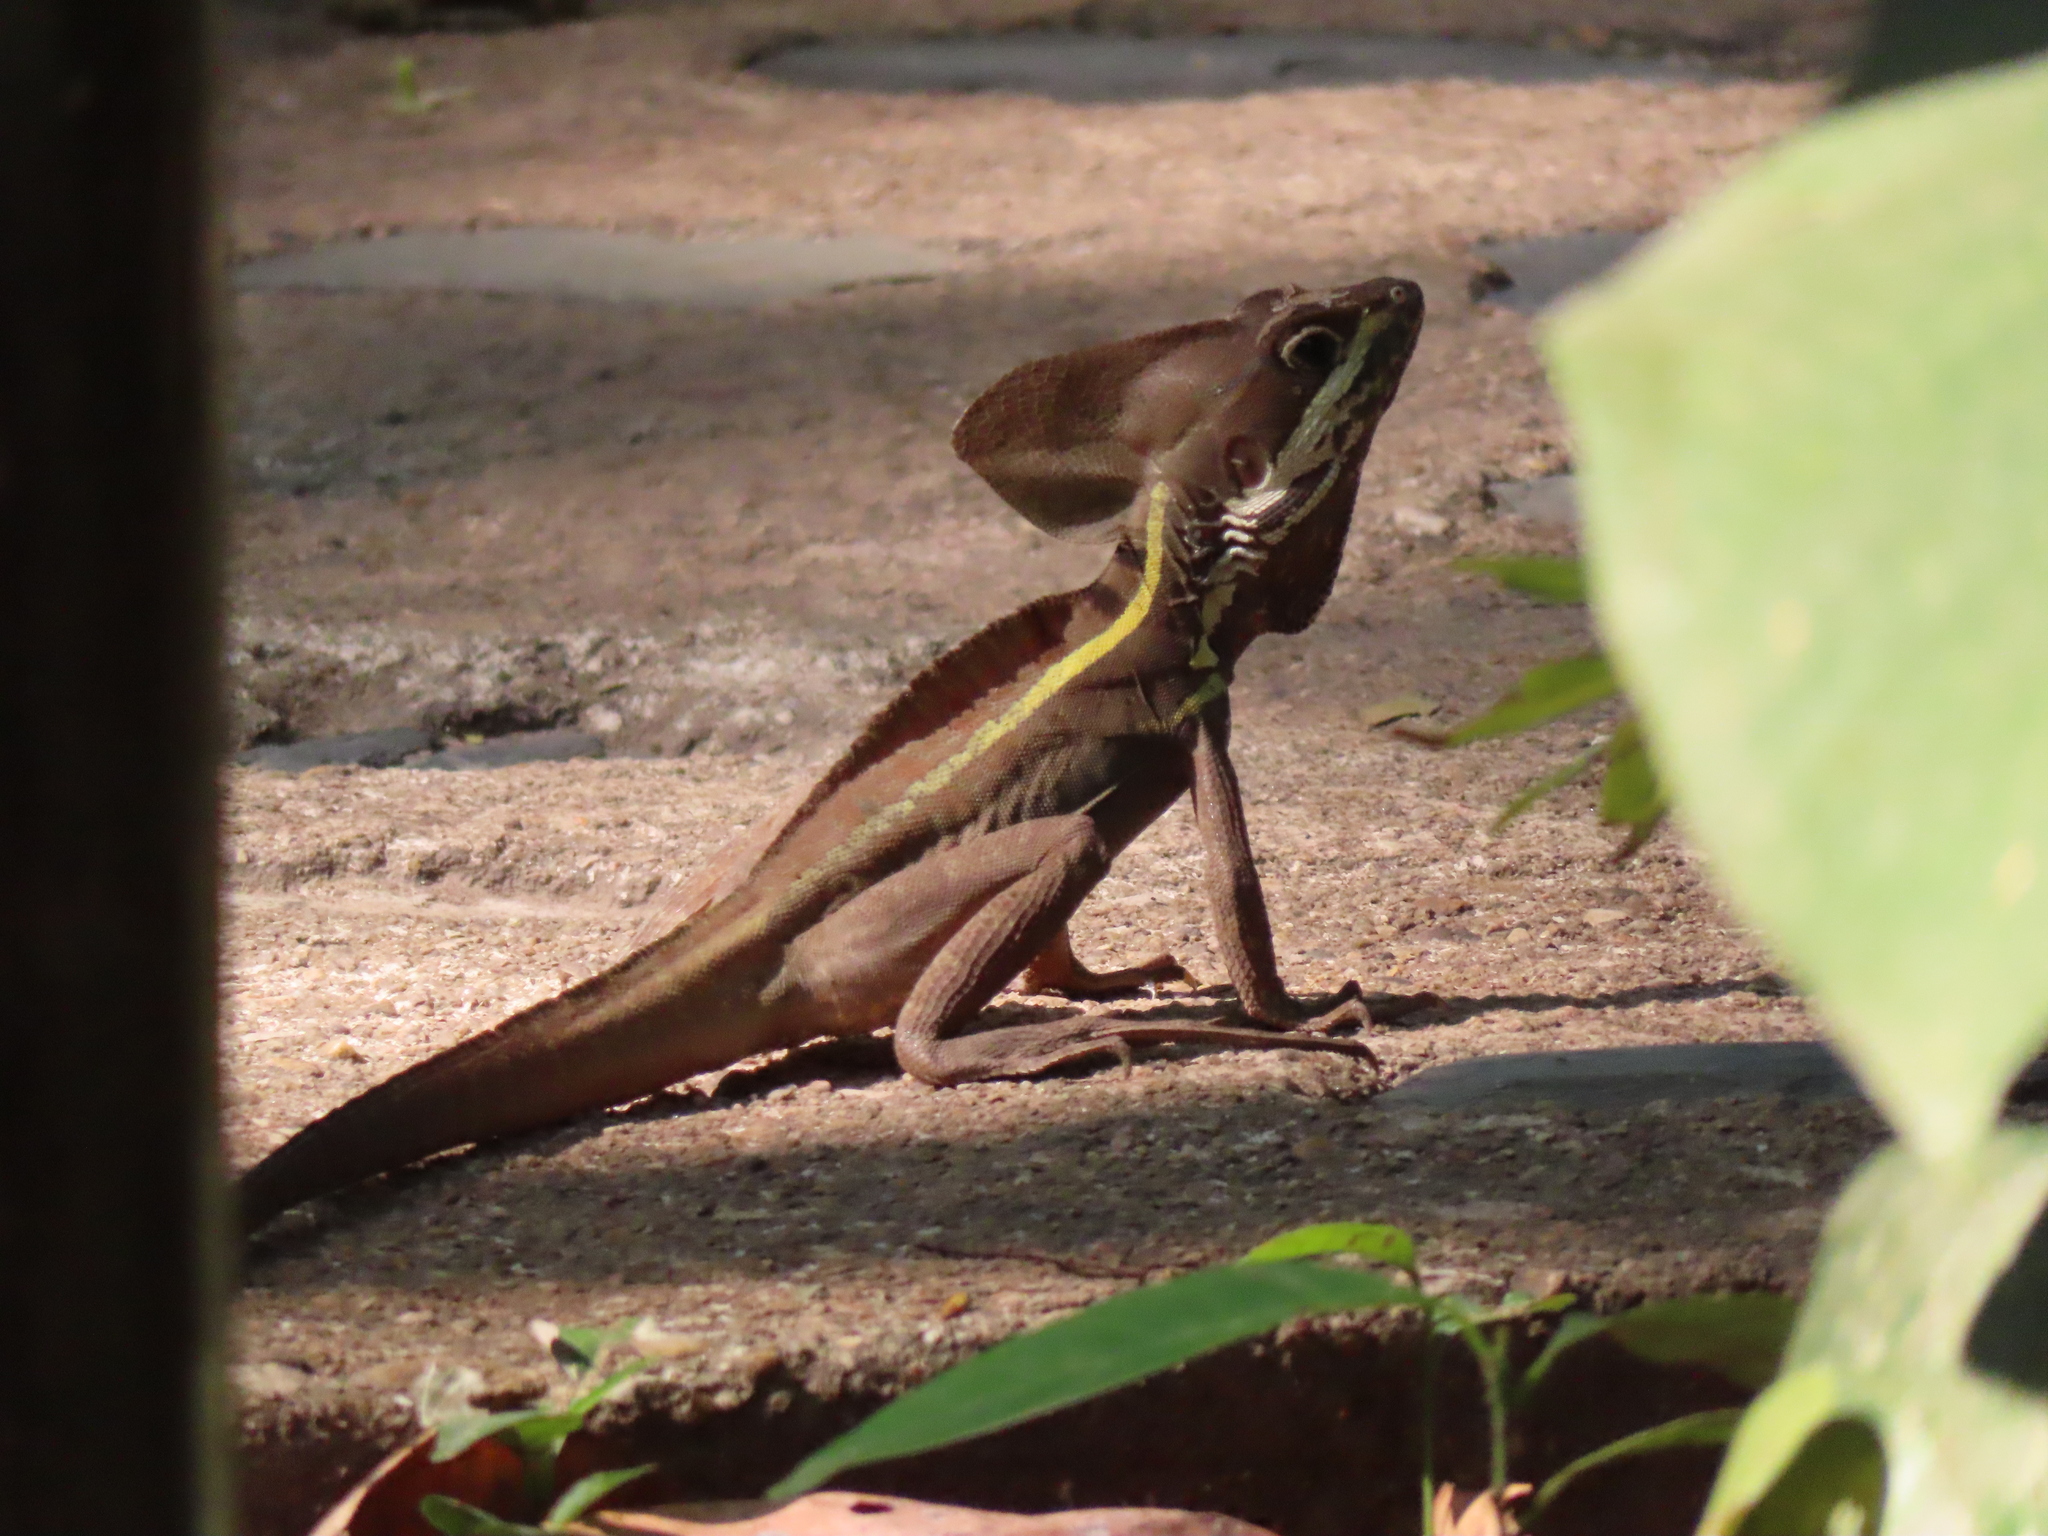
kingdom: Animalia
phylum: Chordata
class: Squamata
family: Corytophanidae
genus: Basiliscus
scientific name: Basiliscus vittatus
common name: Brown basilisk
